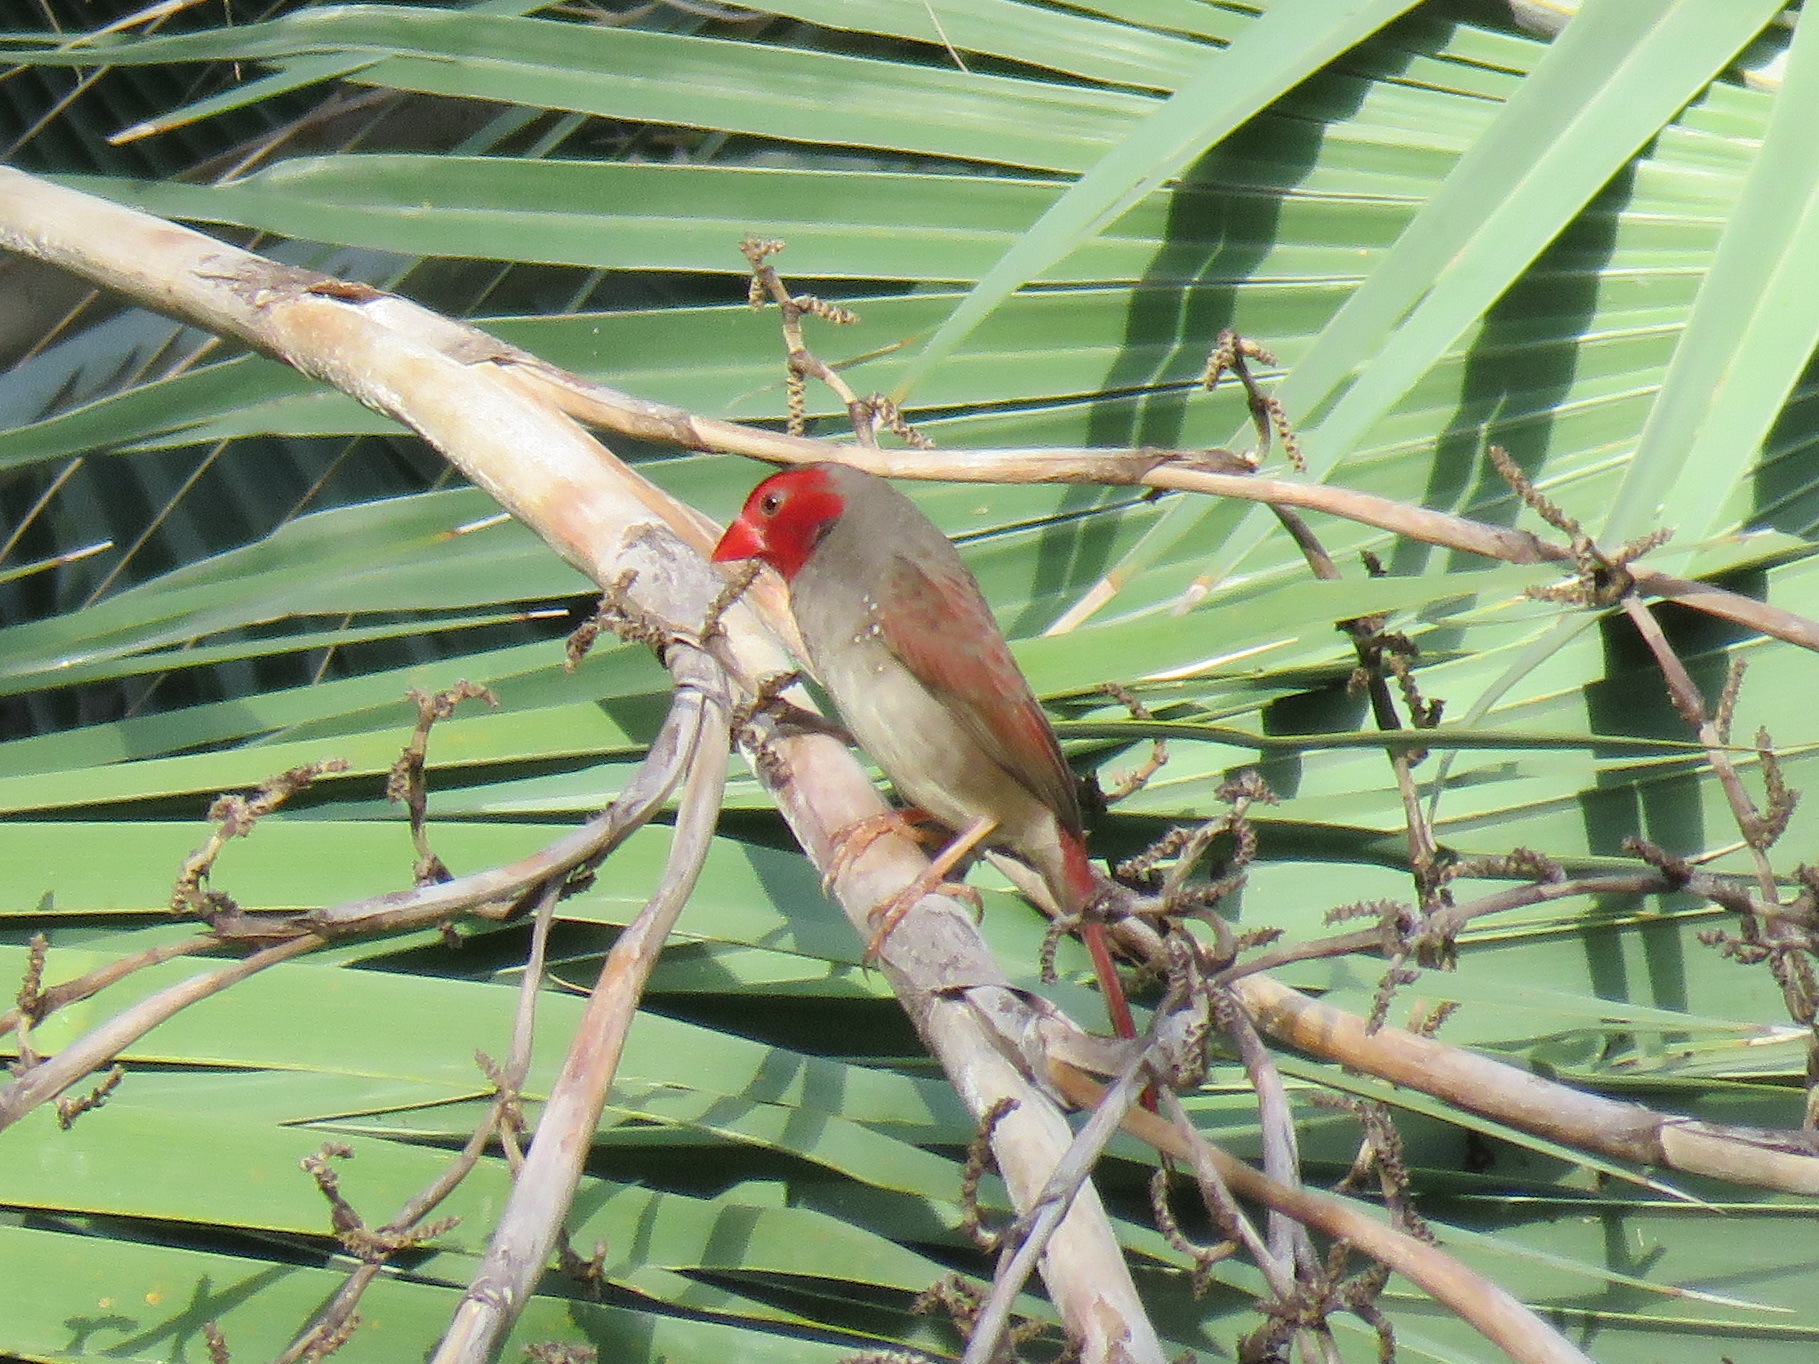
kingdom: Animalia
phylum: Chordata
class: Aves
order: Passeriformes
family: Estrildidae
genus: Neochmia
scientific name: Neochmia phaeton
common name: Crimson finch
